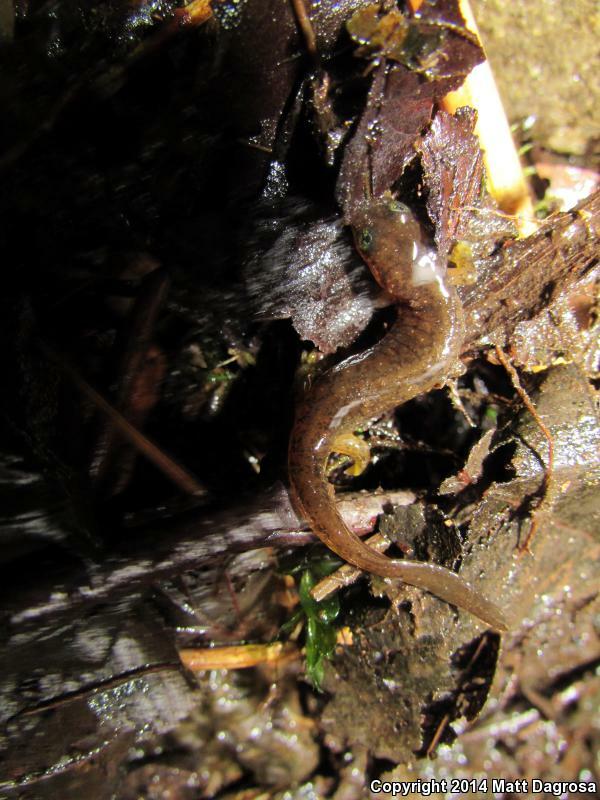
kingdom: Animalia
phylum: Chordata
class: Amphibia
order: Caudata
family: Rhyacotritonidae
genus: Rhyacotriton
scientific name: Rhyacotriton kezeri
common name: Columbia torrent salamander
